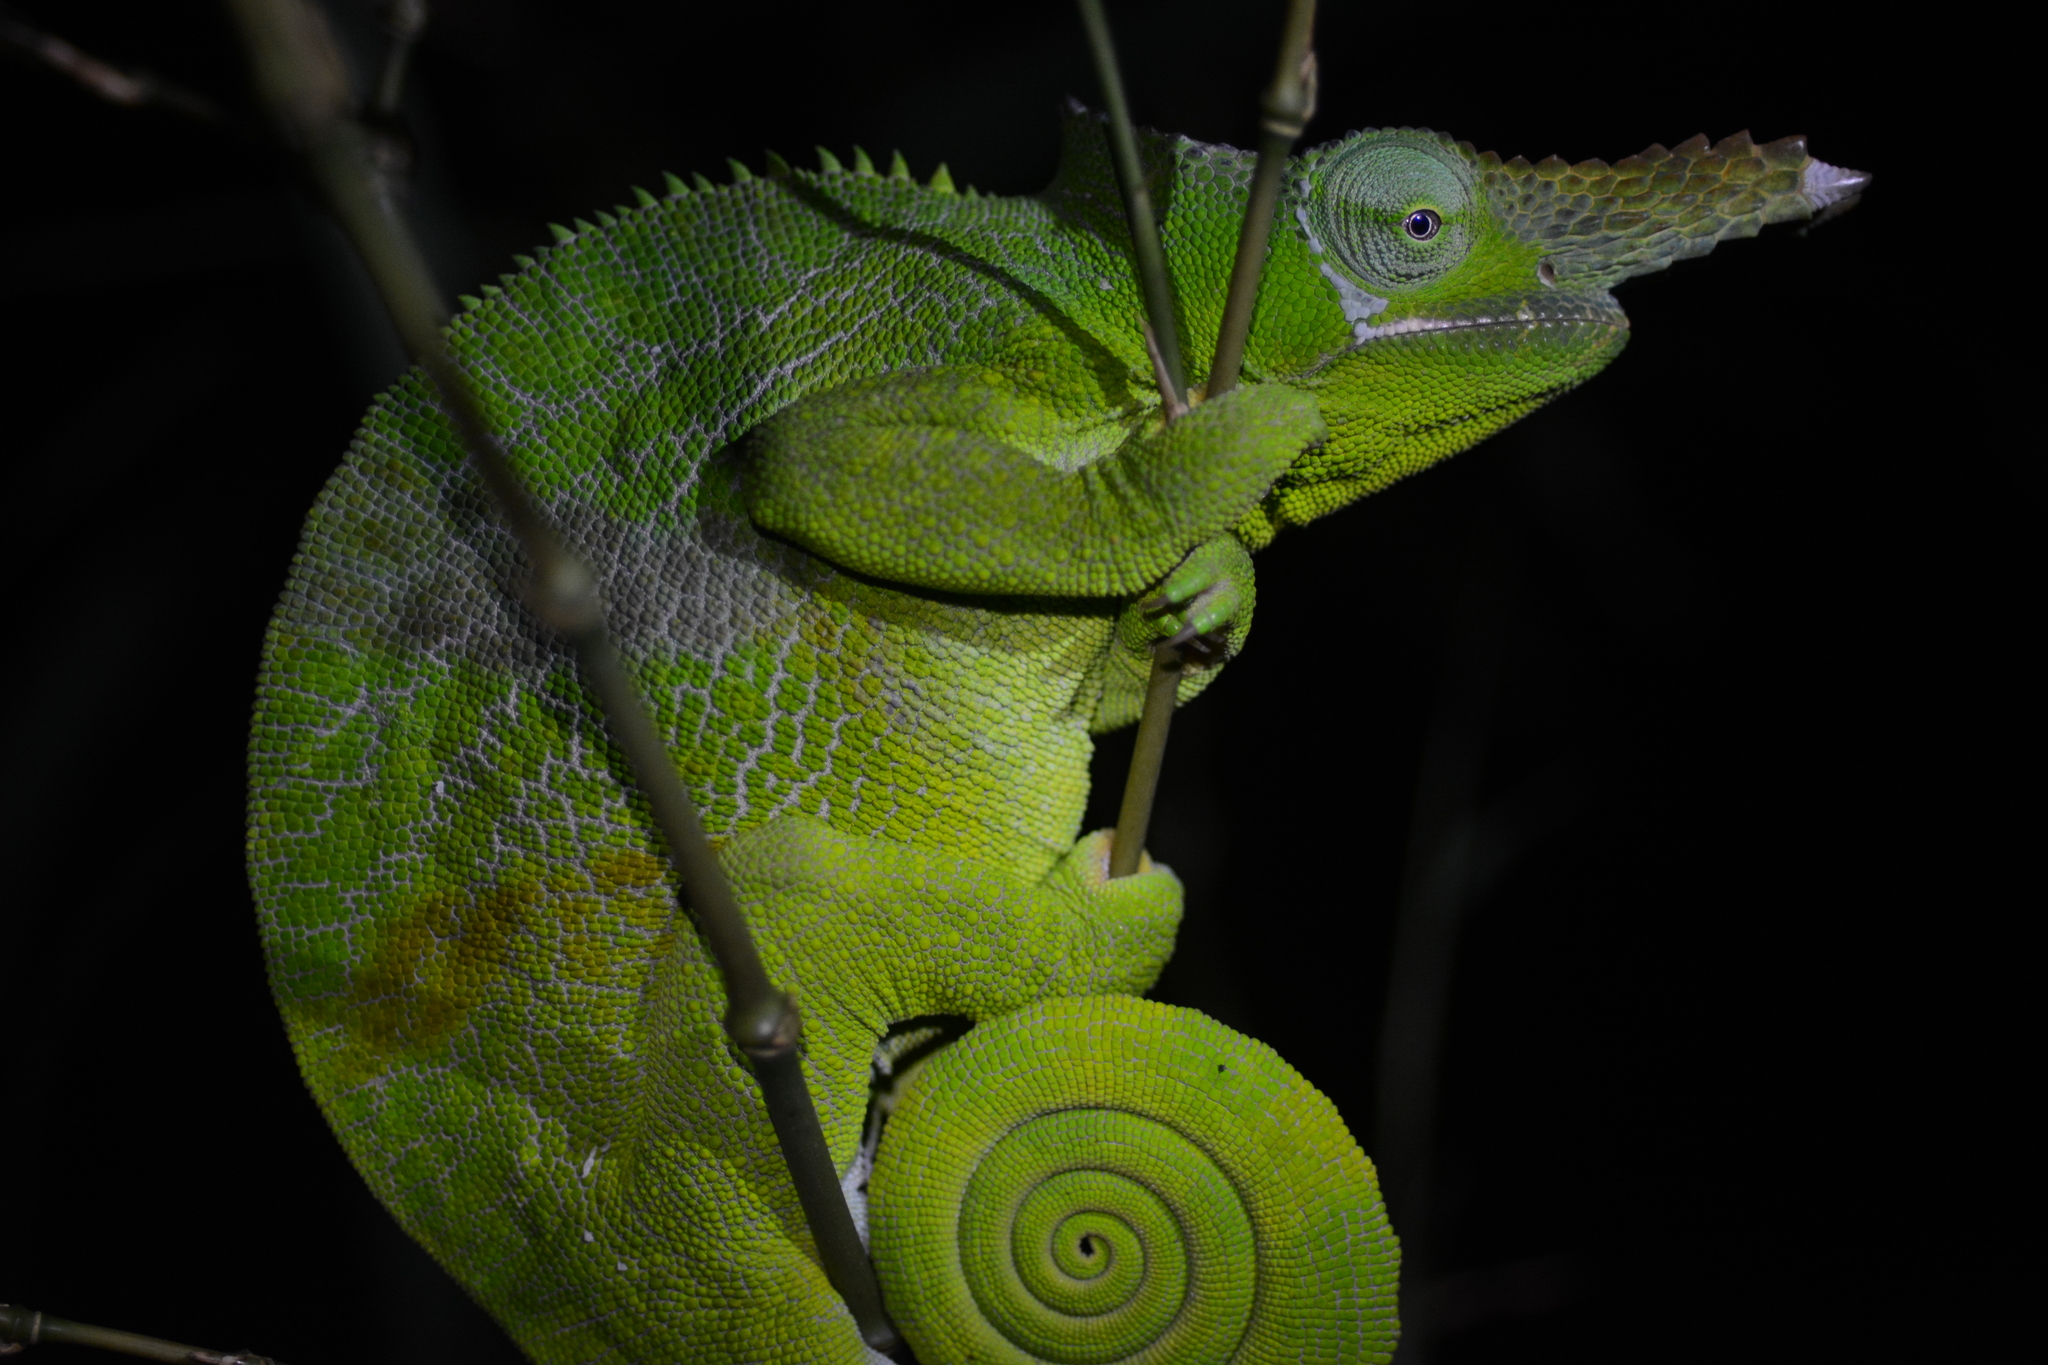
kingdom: Animalia
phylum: Chordata
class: Squamata
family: Chamaeleonidae
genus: Kinyongia
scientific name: Kinyongia matschiei
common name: Giant east usambara blade-horned chameleon
